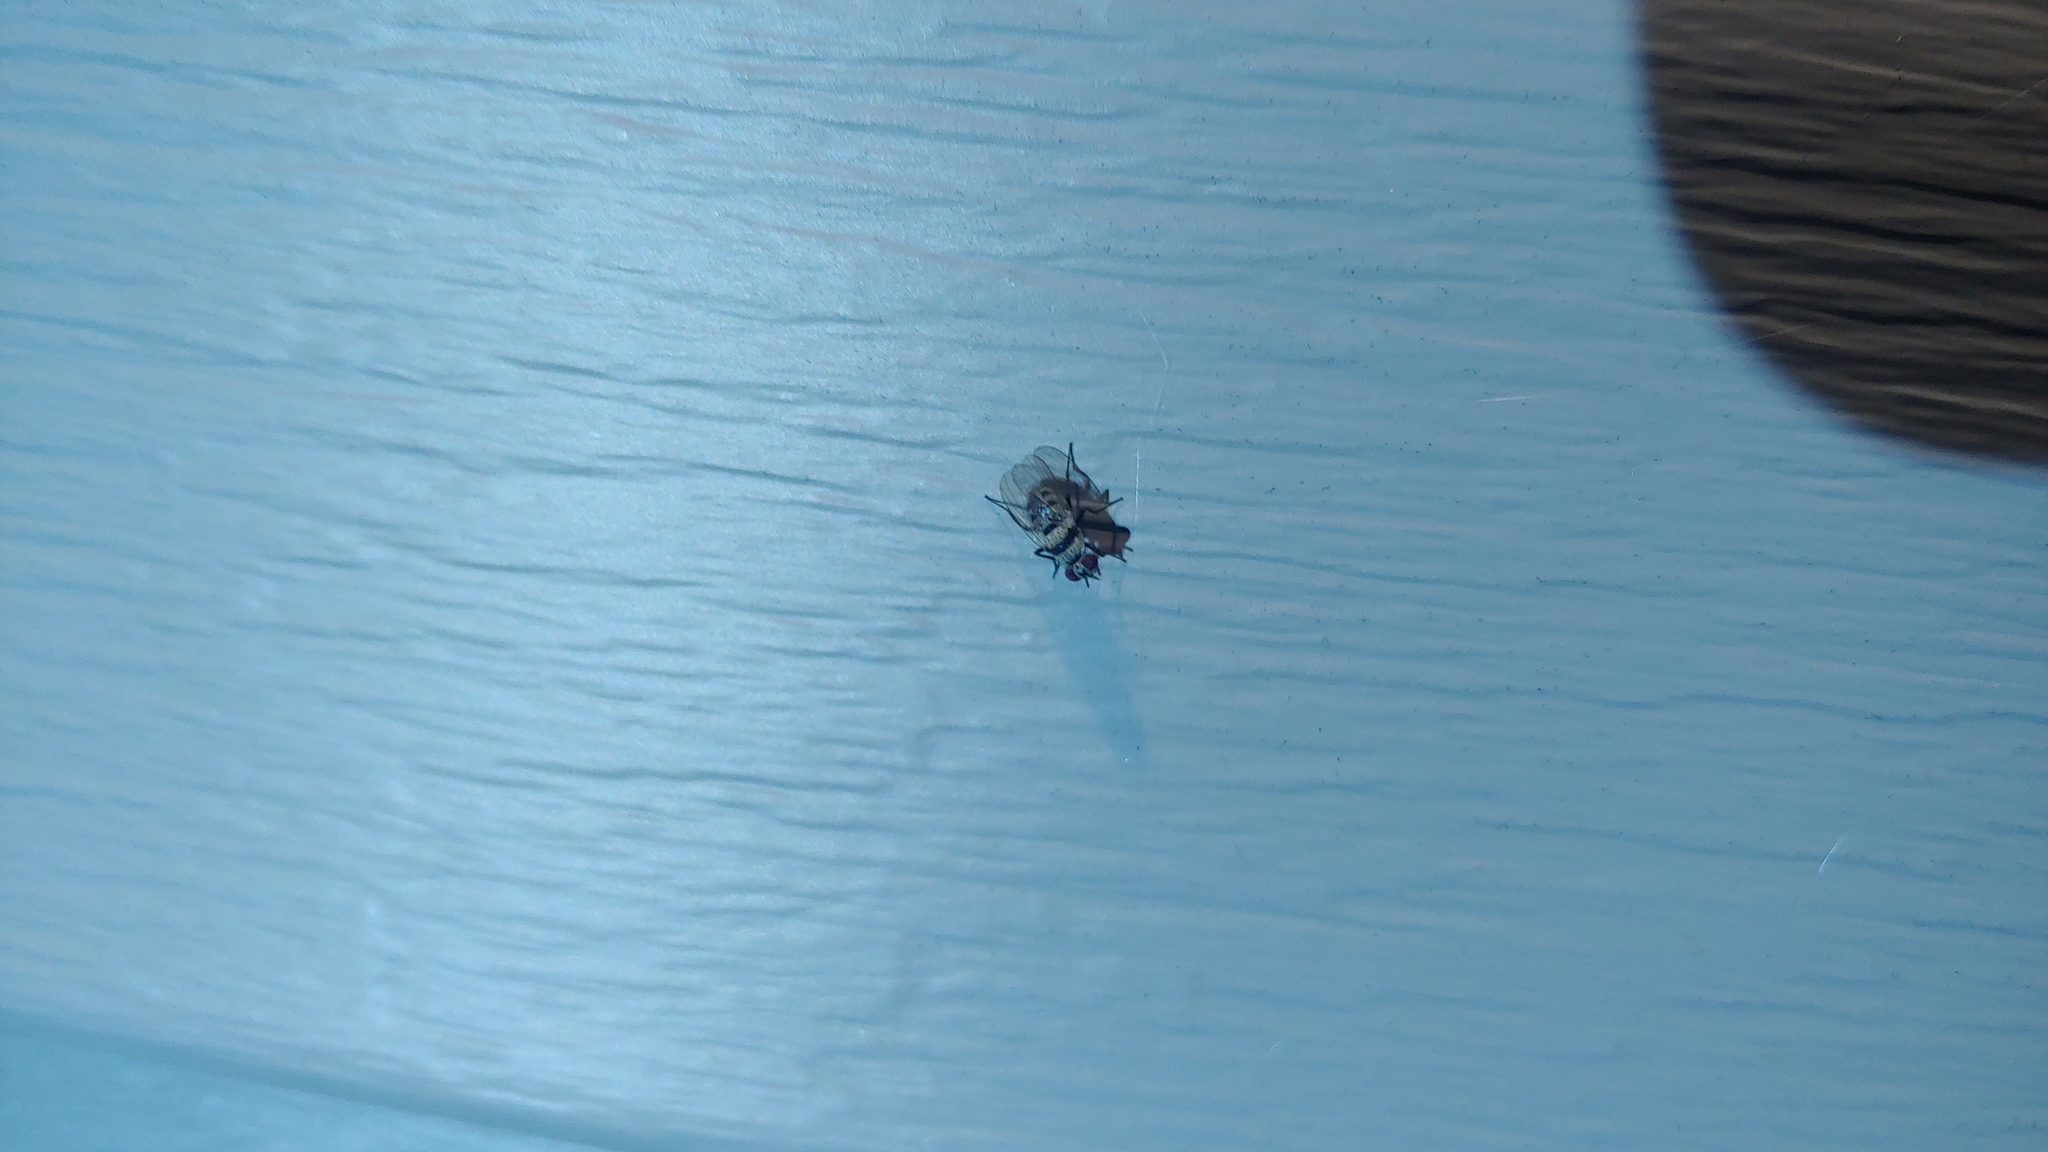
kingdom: Animalia
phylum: Arthropoda
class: Insecta
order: Diptera
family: Anthomyiidae
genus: Anthomyia
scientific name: Anthomyia illocata
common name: Fly
